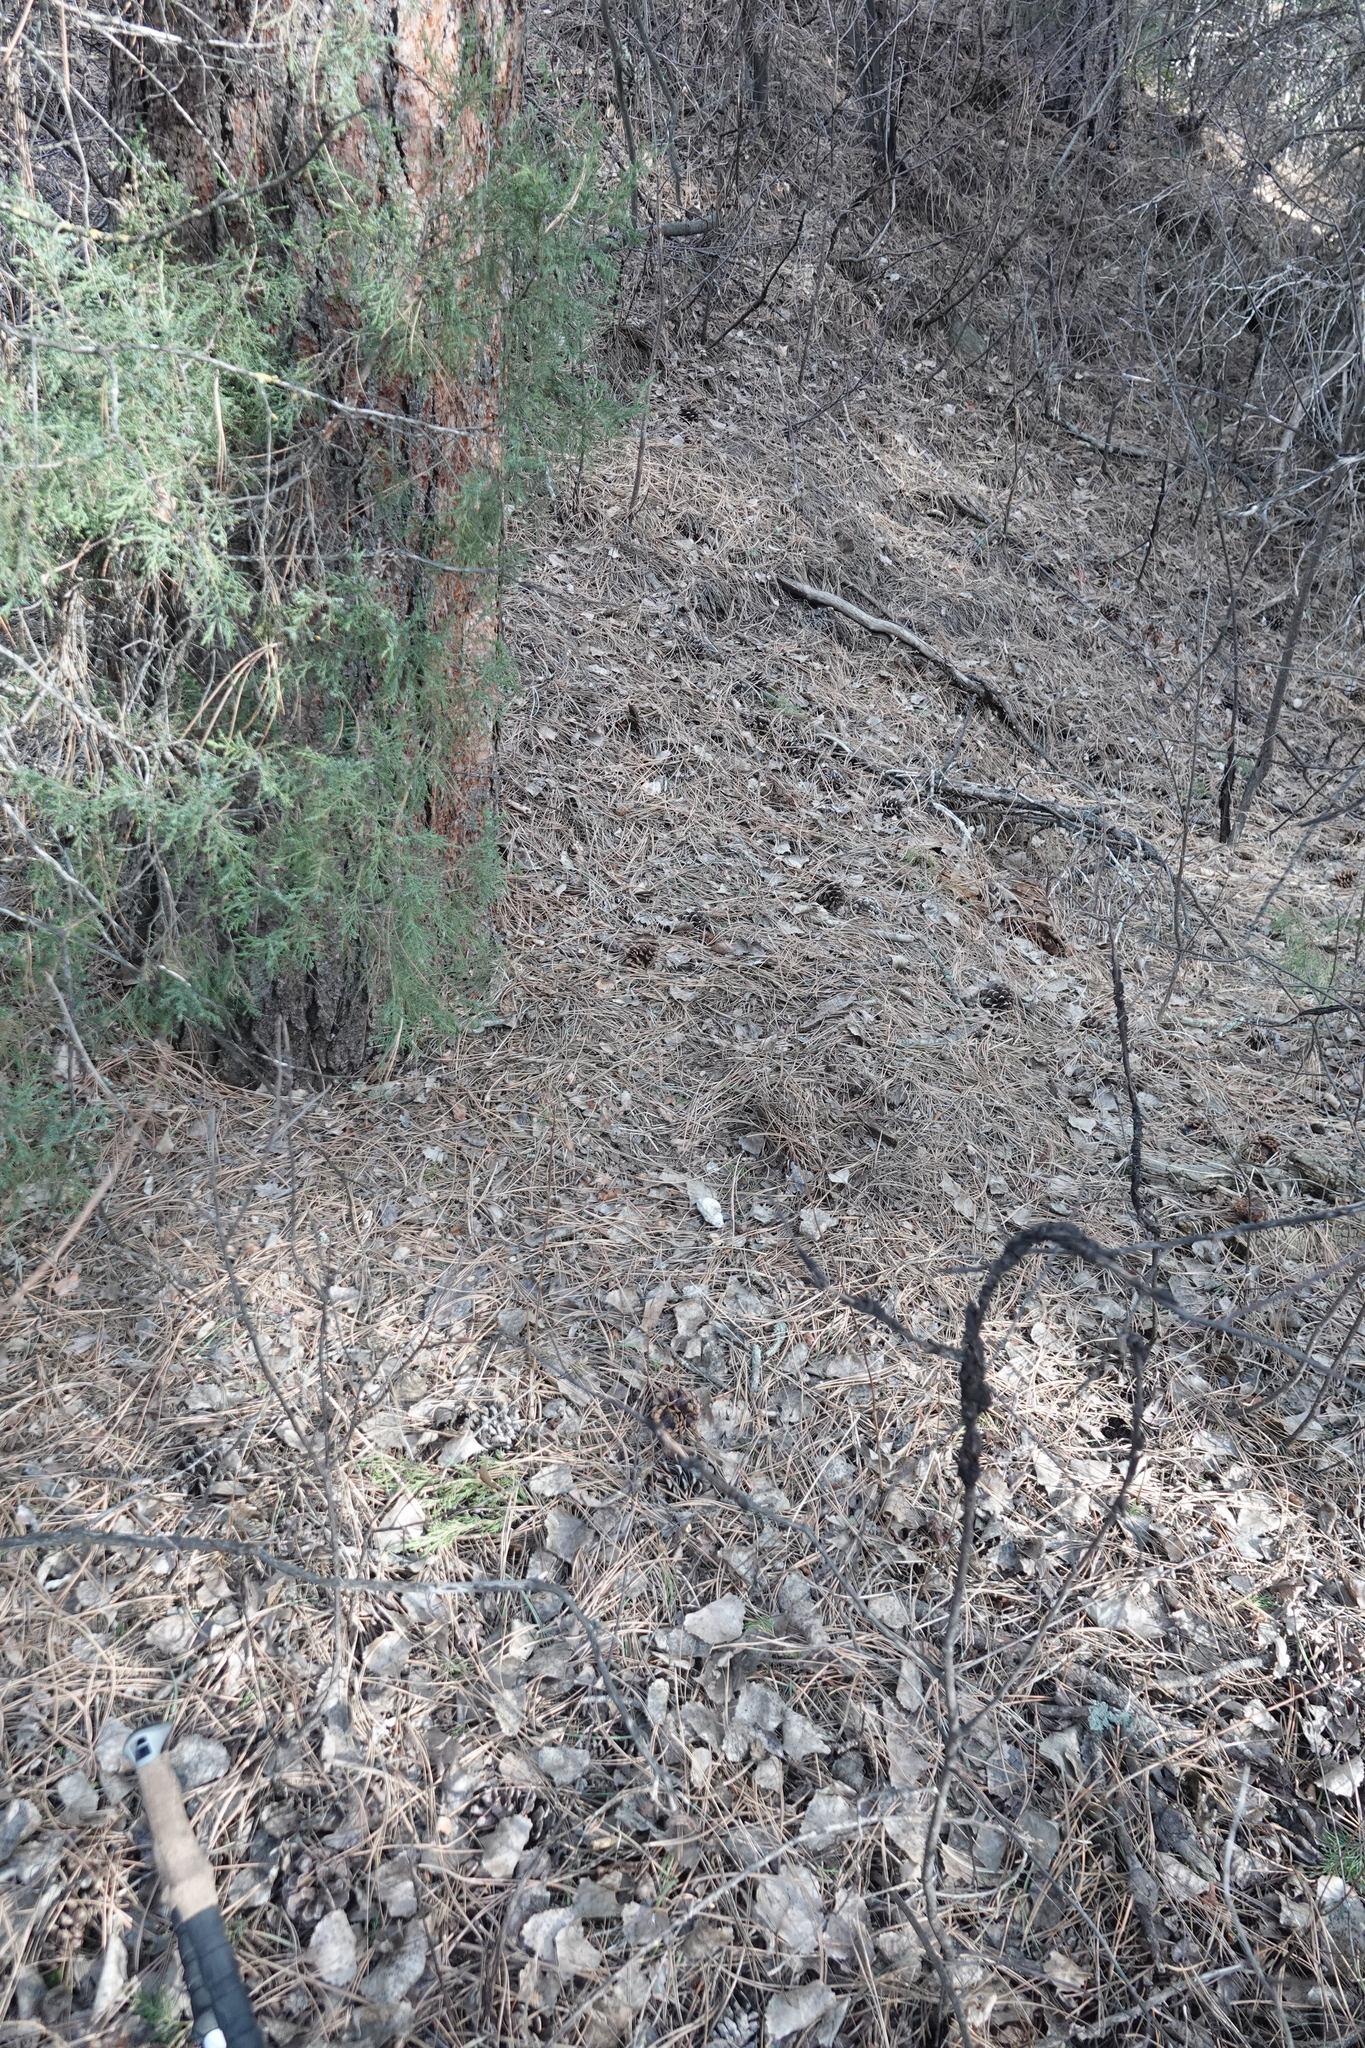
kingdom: Animalia
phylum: Chordata
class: Mammalia
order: Carnivora
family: Felidae
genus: Puma
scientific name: Puma concolor
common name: Puma
